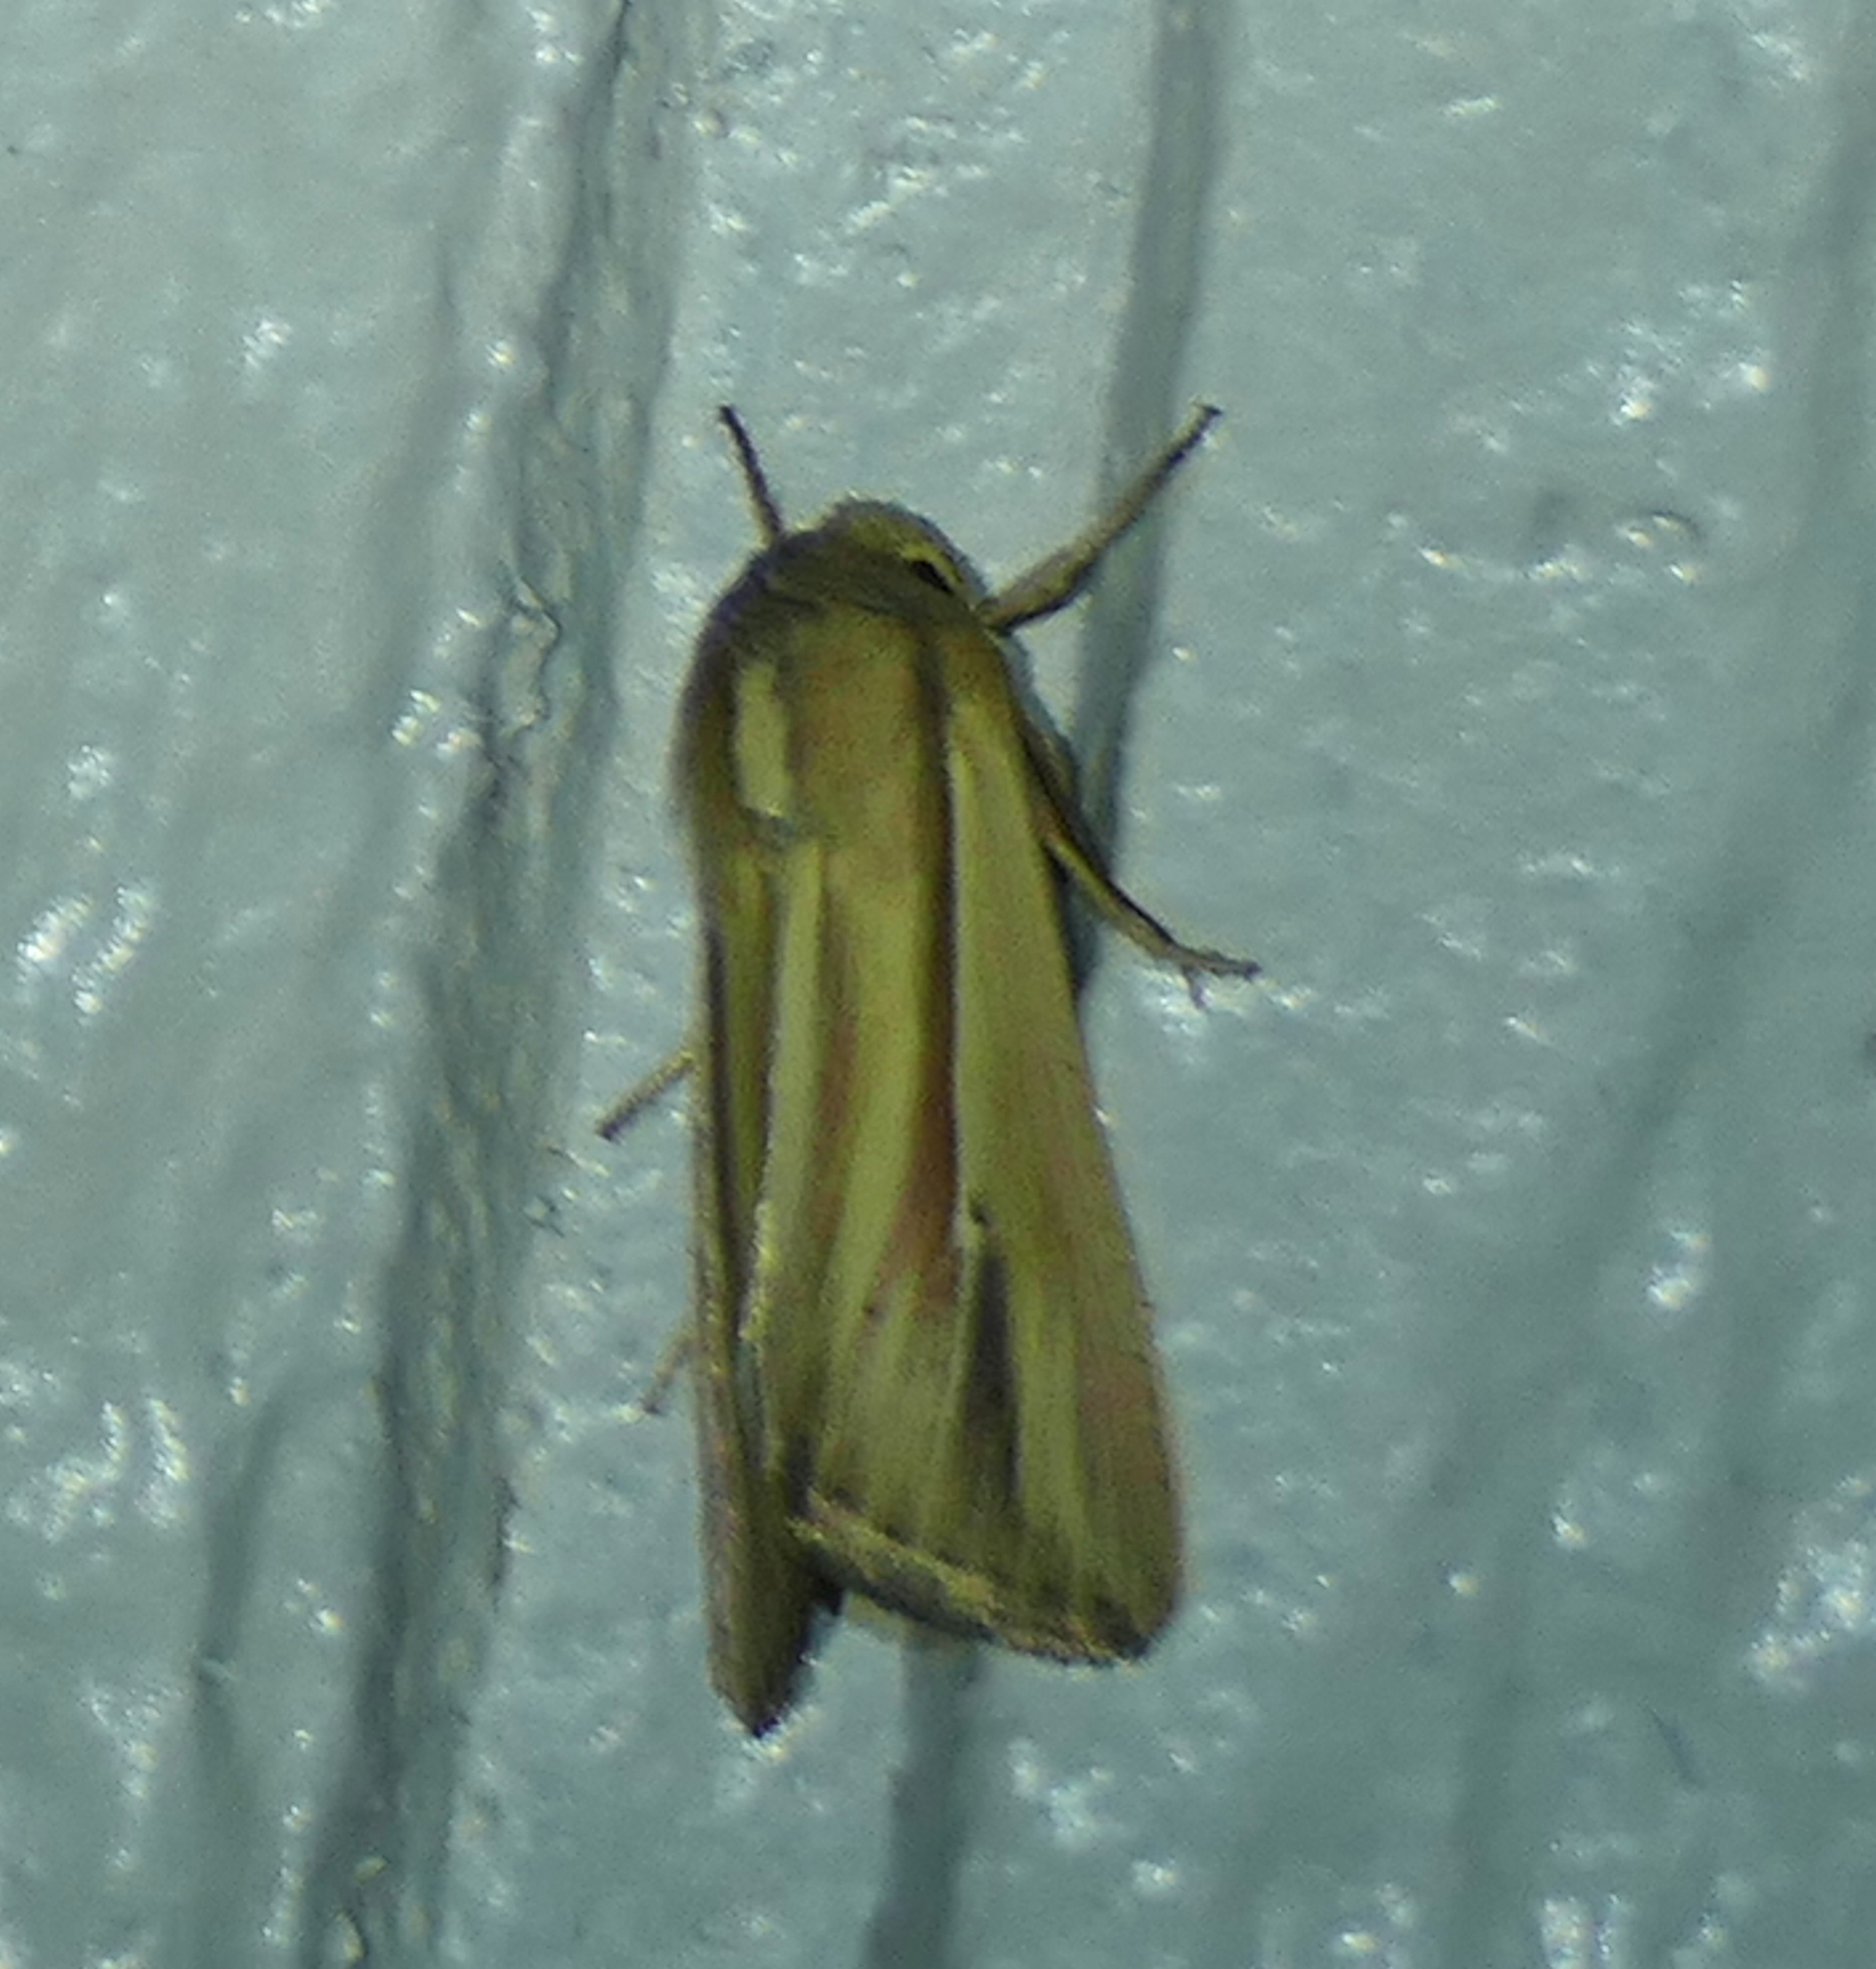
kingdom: Animalia
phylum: Arthropoda
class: Insecta
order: Lepidoptera
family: Noctuidae
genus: Dargida
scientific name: Dargida diffusa
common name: Wheat head armyworm
